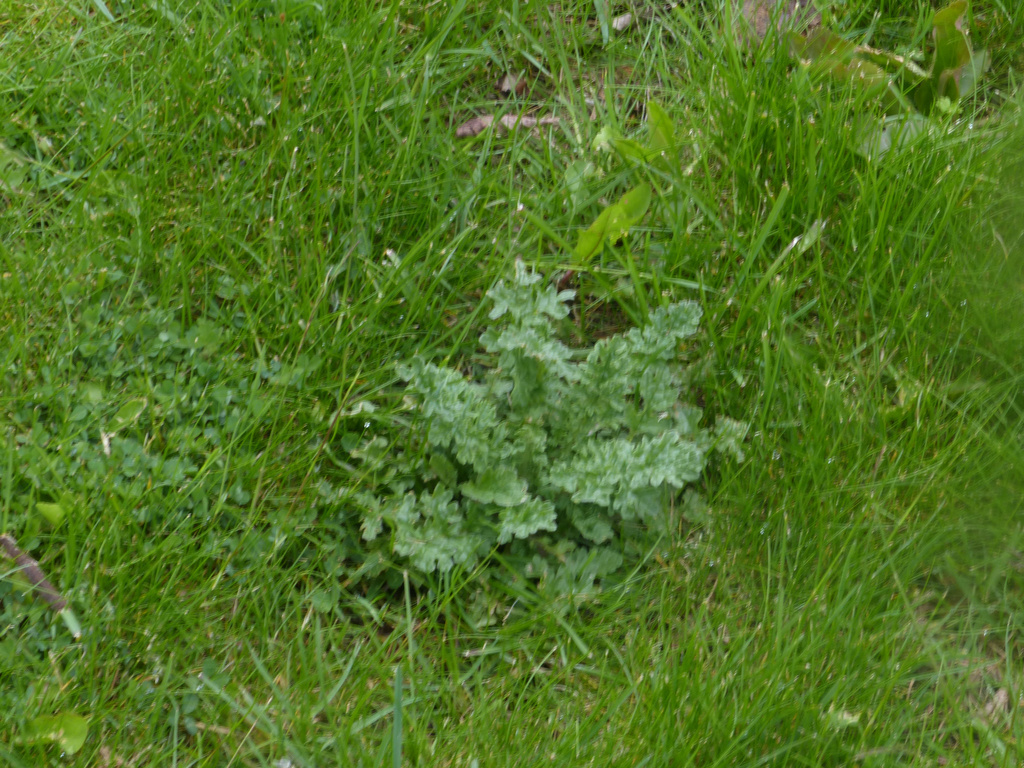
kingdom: Plantae
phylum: Tracheophyta
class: Magnoliopsida
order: Asterales
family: Asteraceae
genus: Jacobaea
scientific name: Jacobaea vulgaris
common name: Stinking willie
